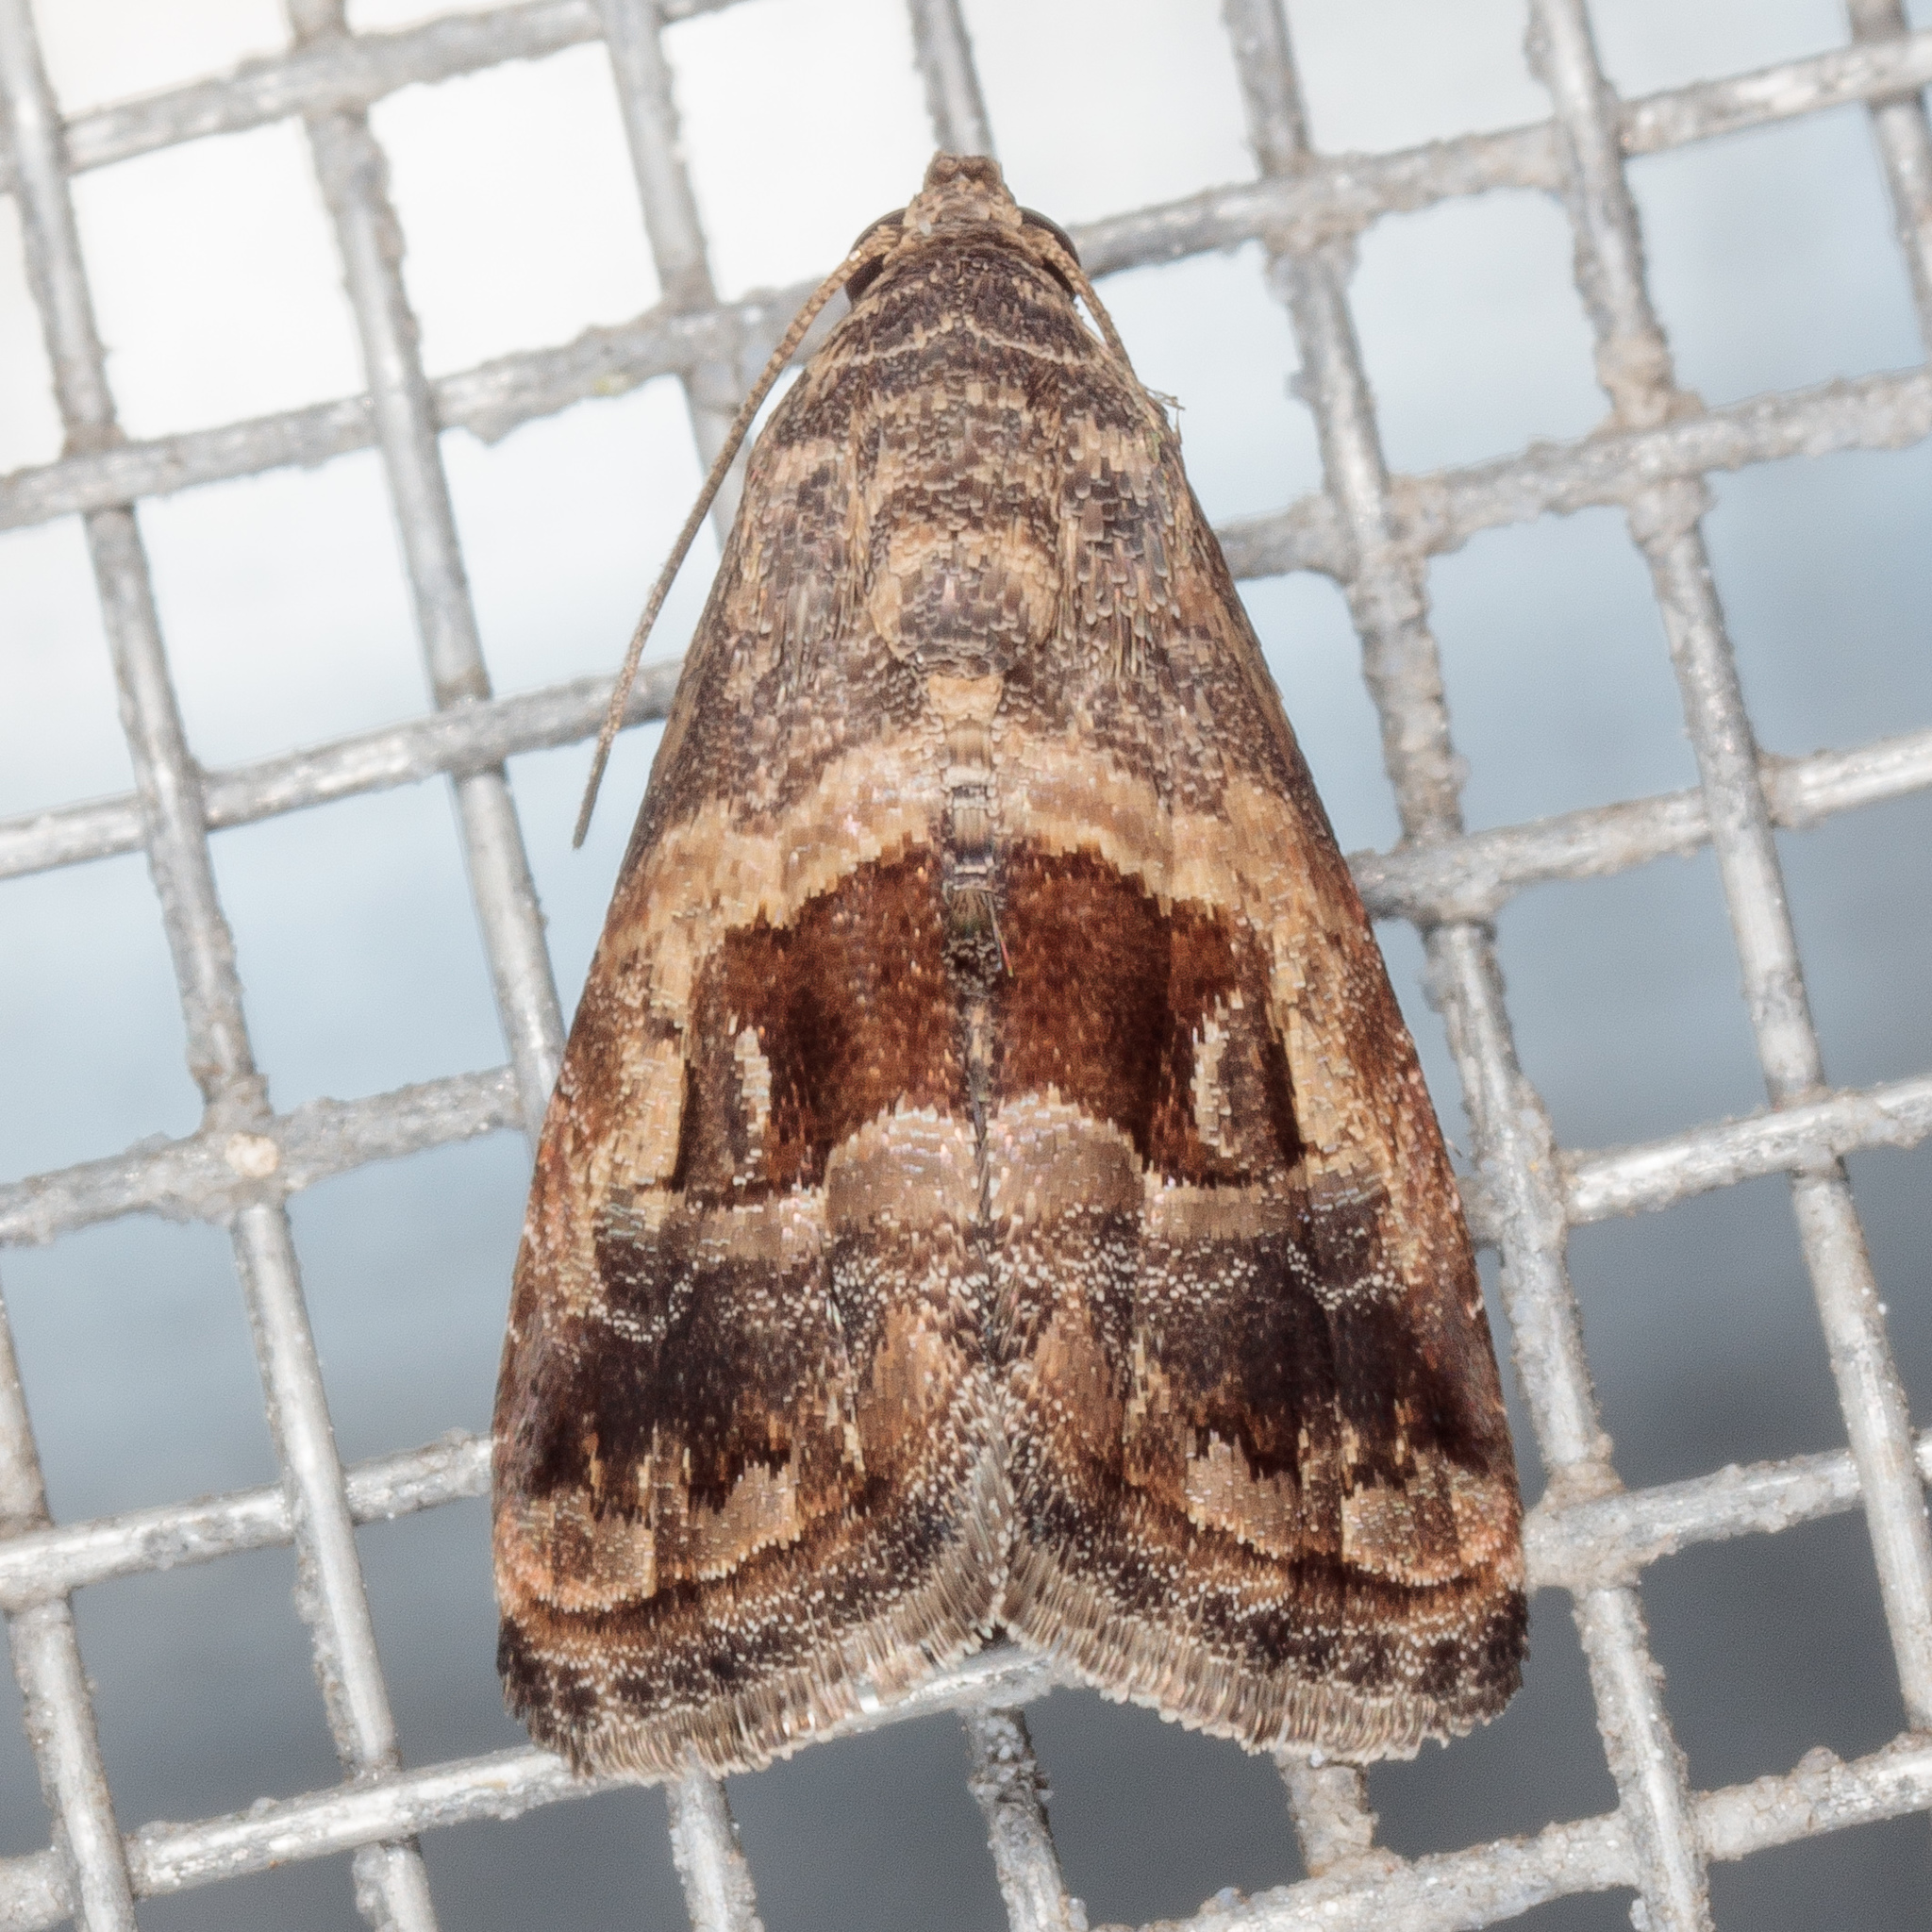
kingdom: Animalia
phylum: Arthropoda
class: Insecta
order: Lepidoptera
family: Noctuidae
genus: Tripudia
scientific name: Tripudia quadrifera
